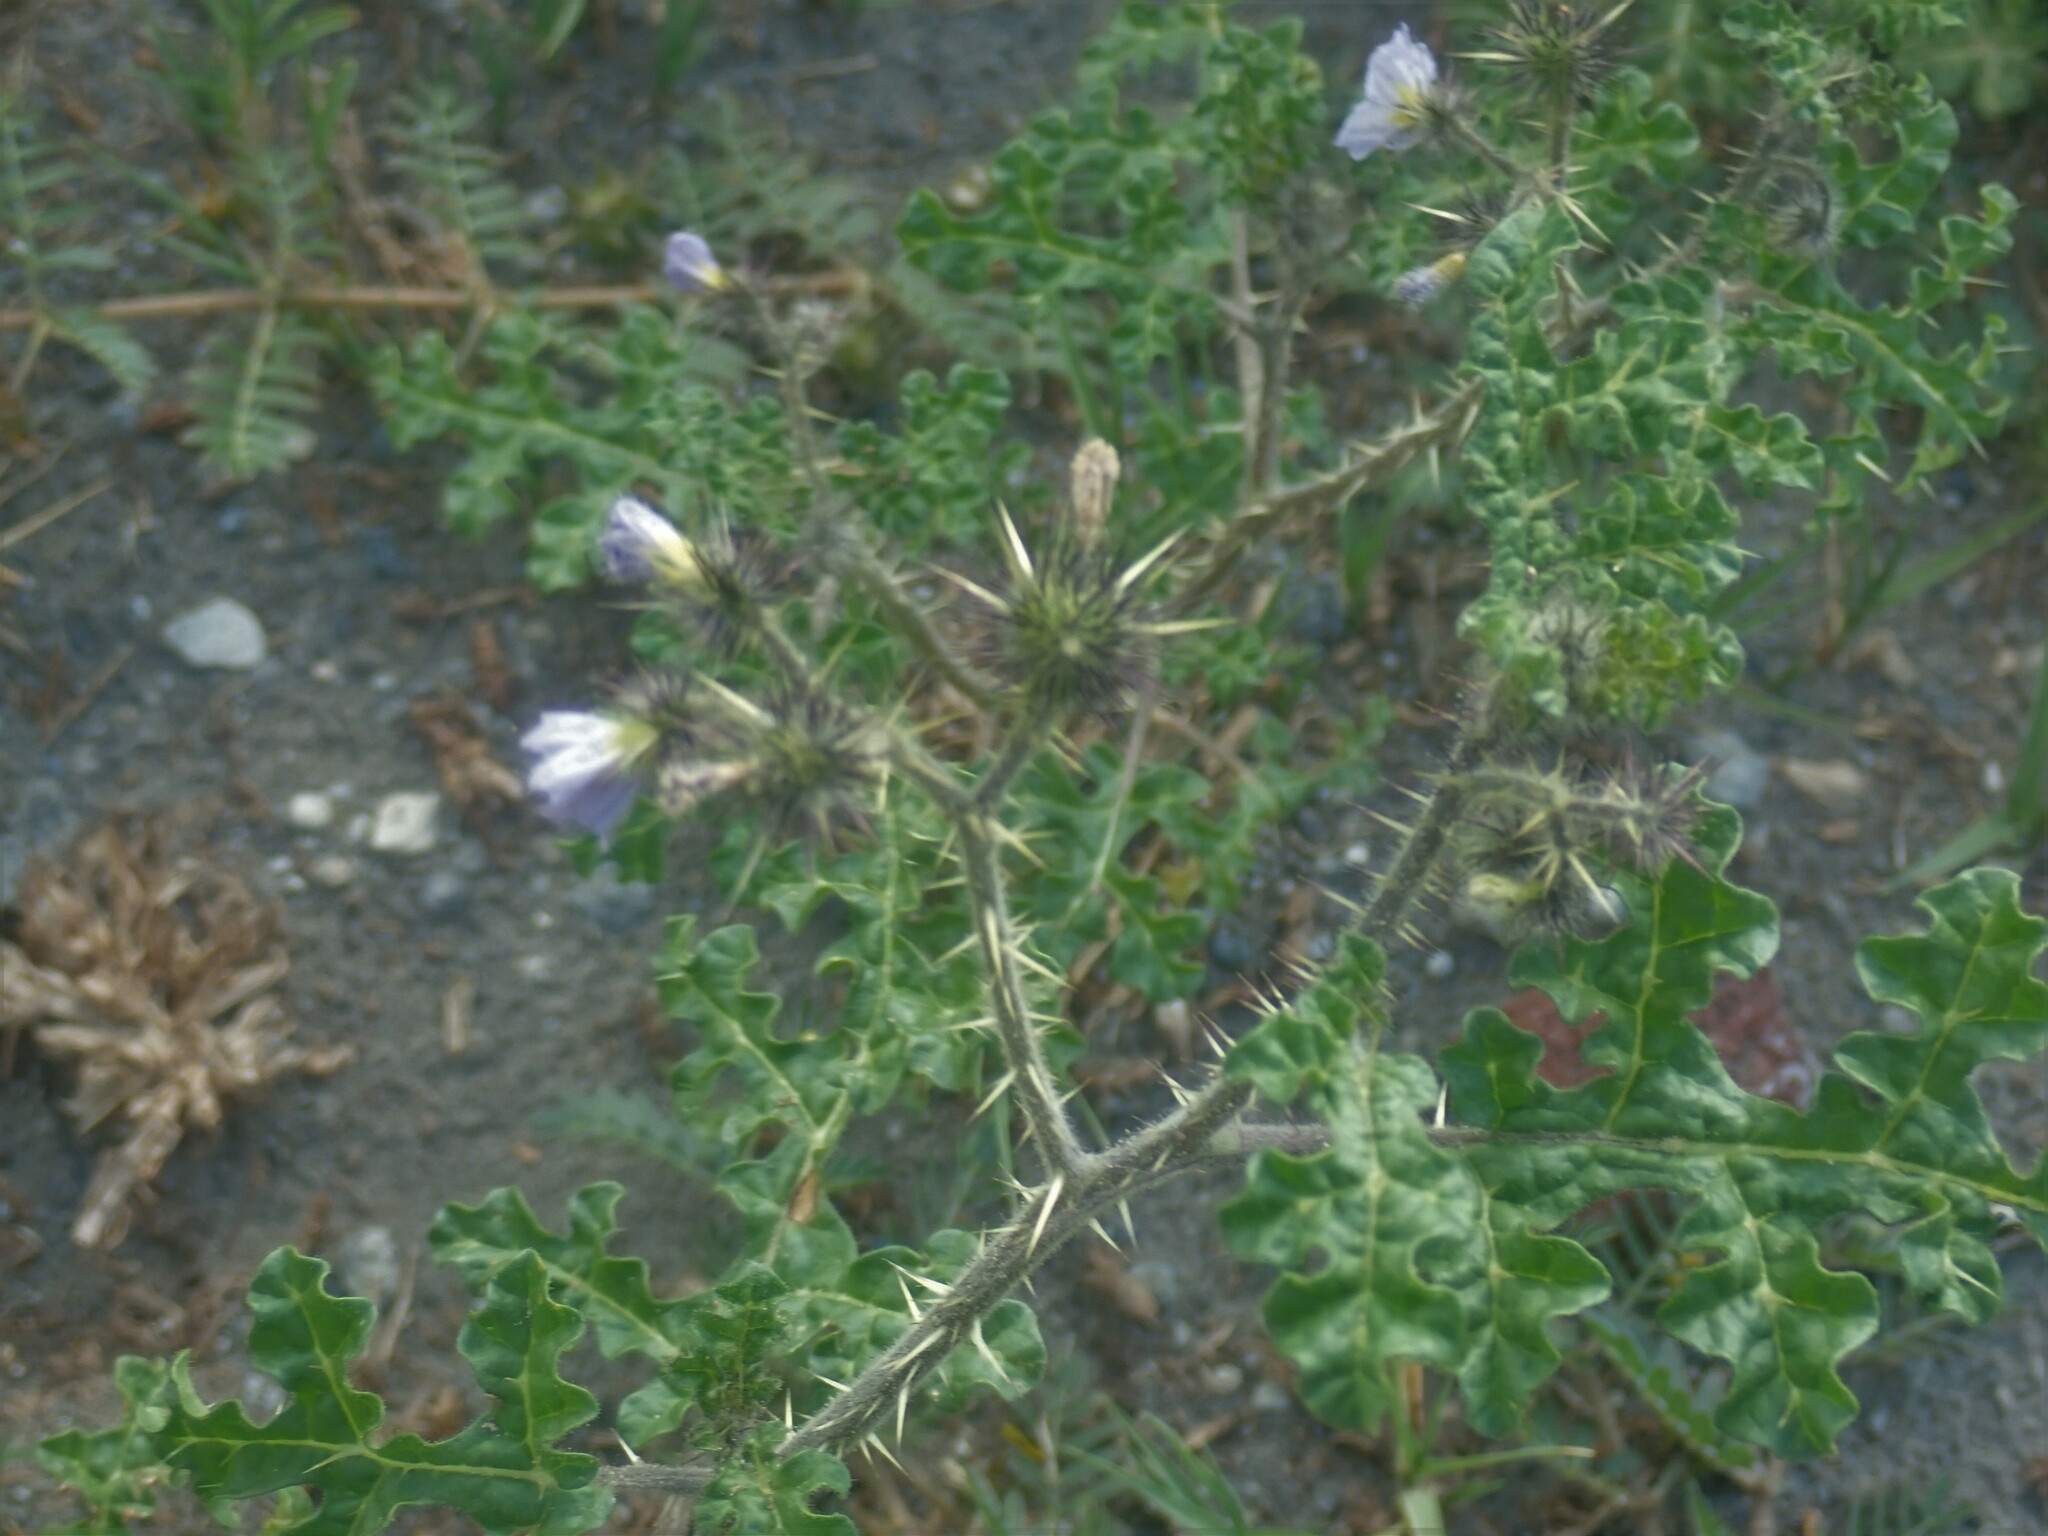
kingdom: Plantae
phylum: Tracheophyta
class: Magnoliopsida
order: Solanales
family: Solanaceae
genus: Solanum
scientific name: Solanum heterodoxum
